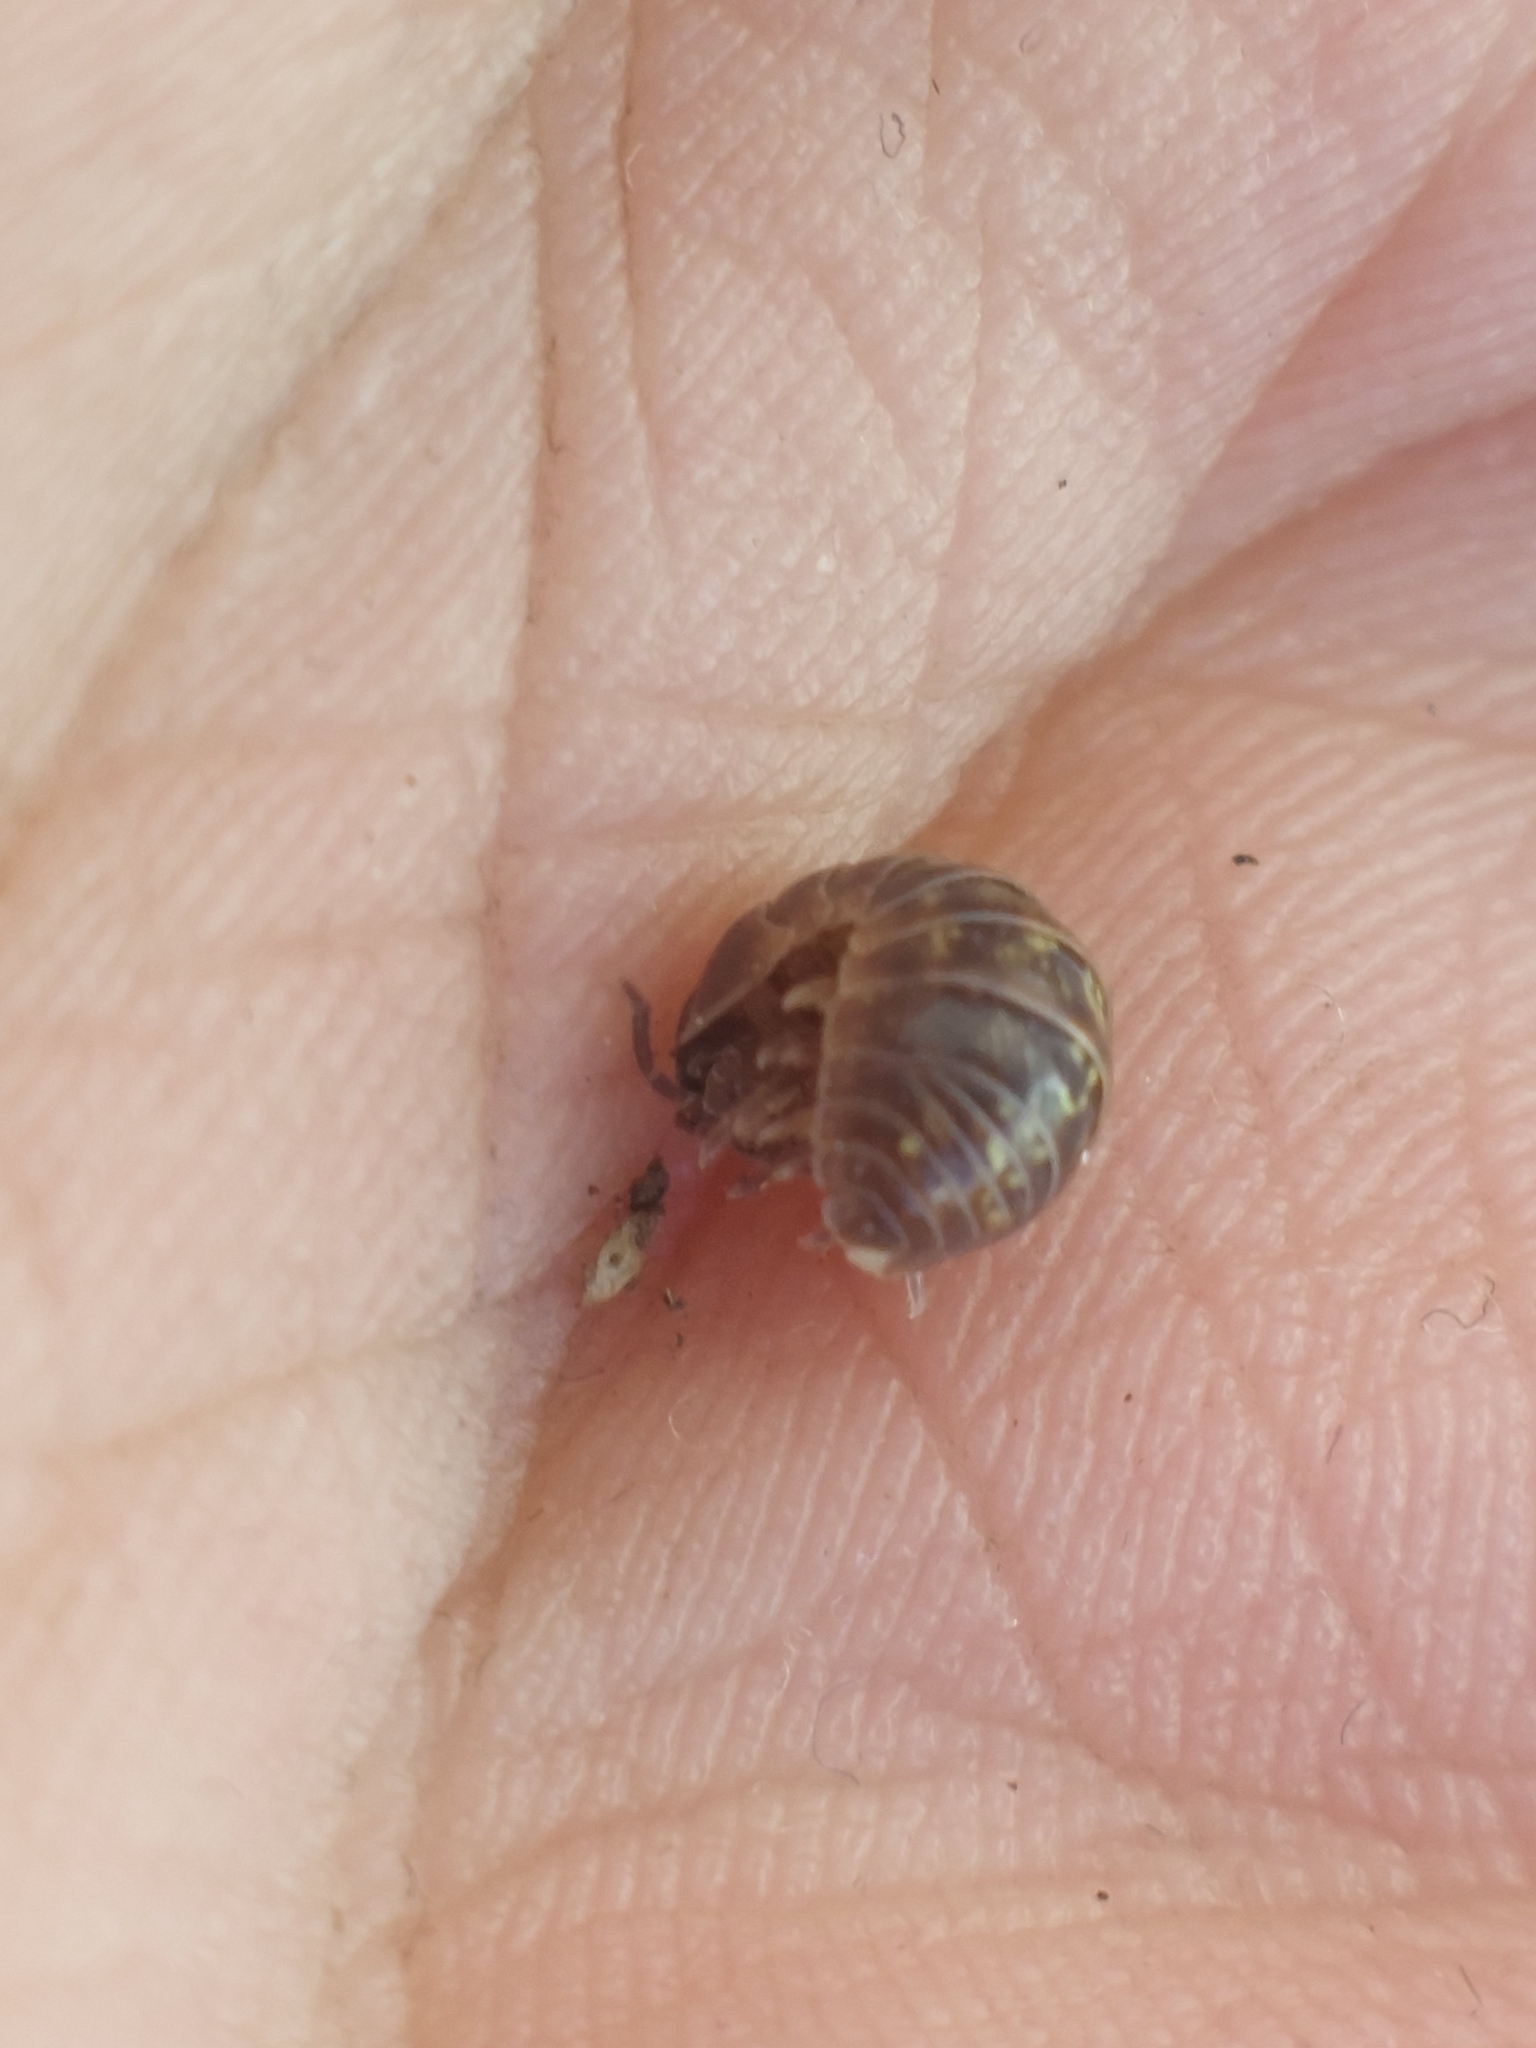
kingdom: Animalia
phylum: Arthropoda
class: Malacostraca
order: Isopoda
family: Armadillidiidae
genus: Armadillidium
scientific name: Armadillidium vulgare
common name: Common pill woodlouse
